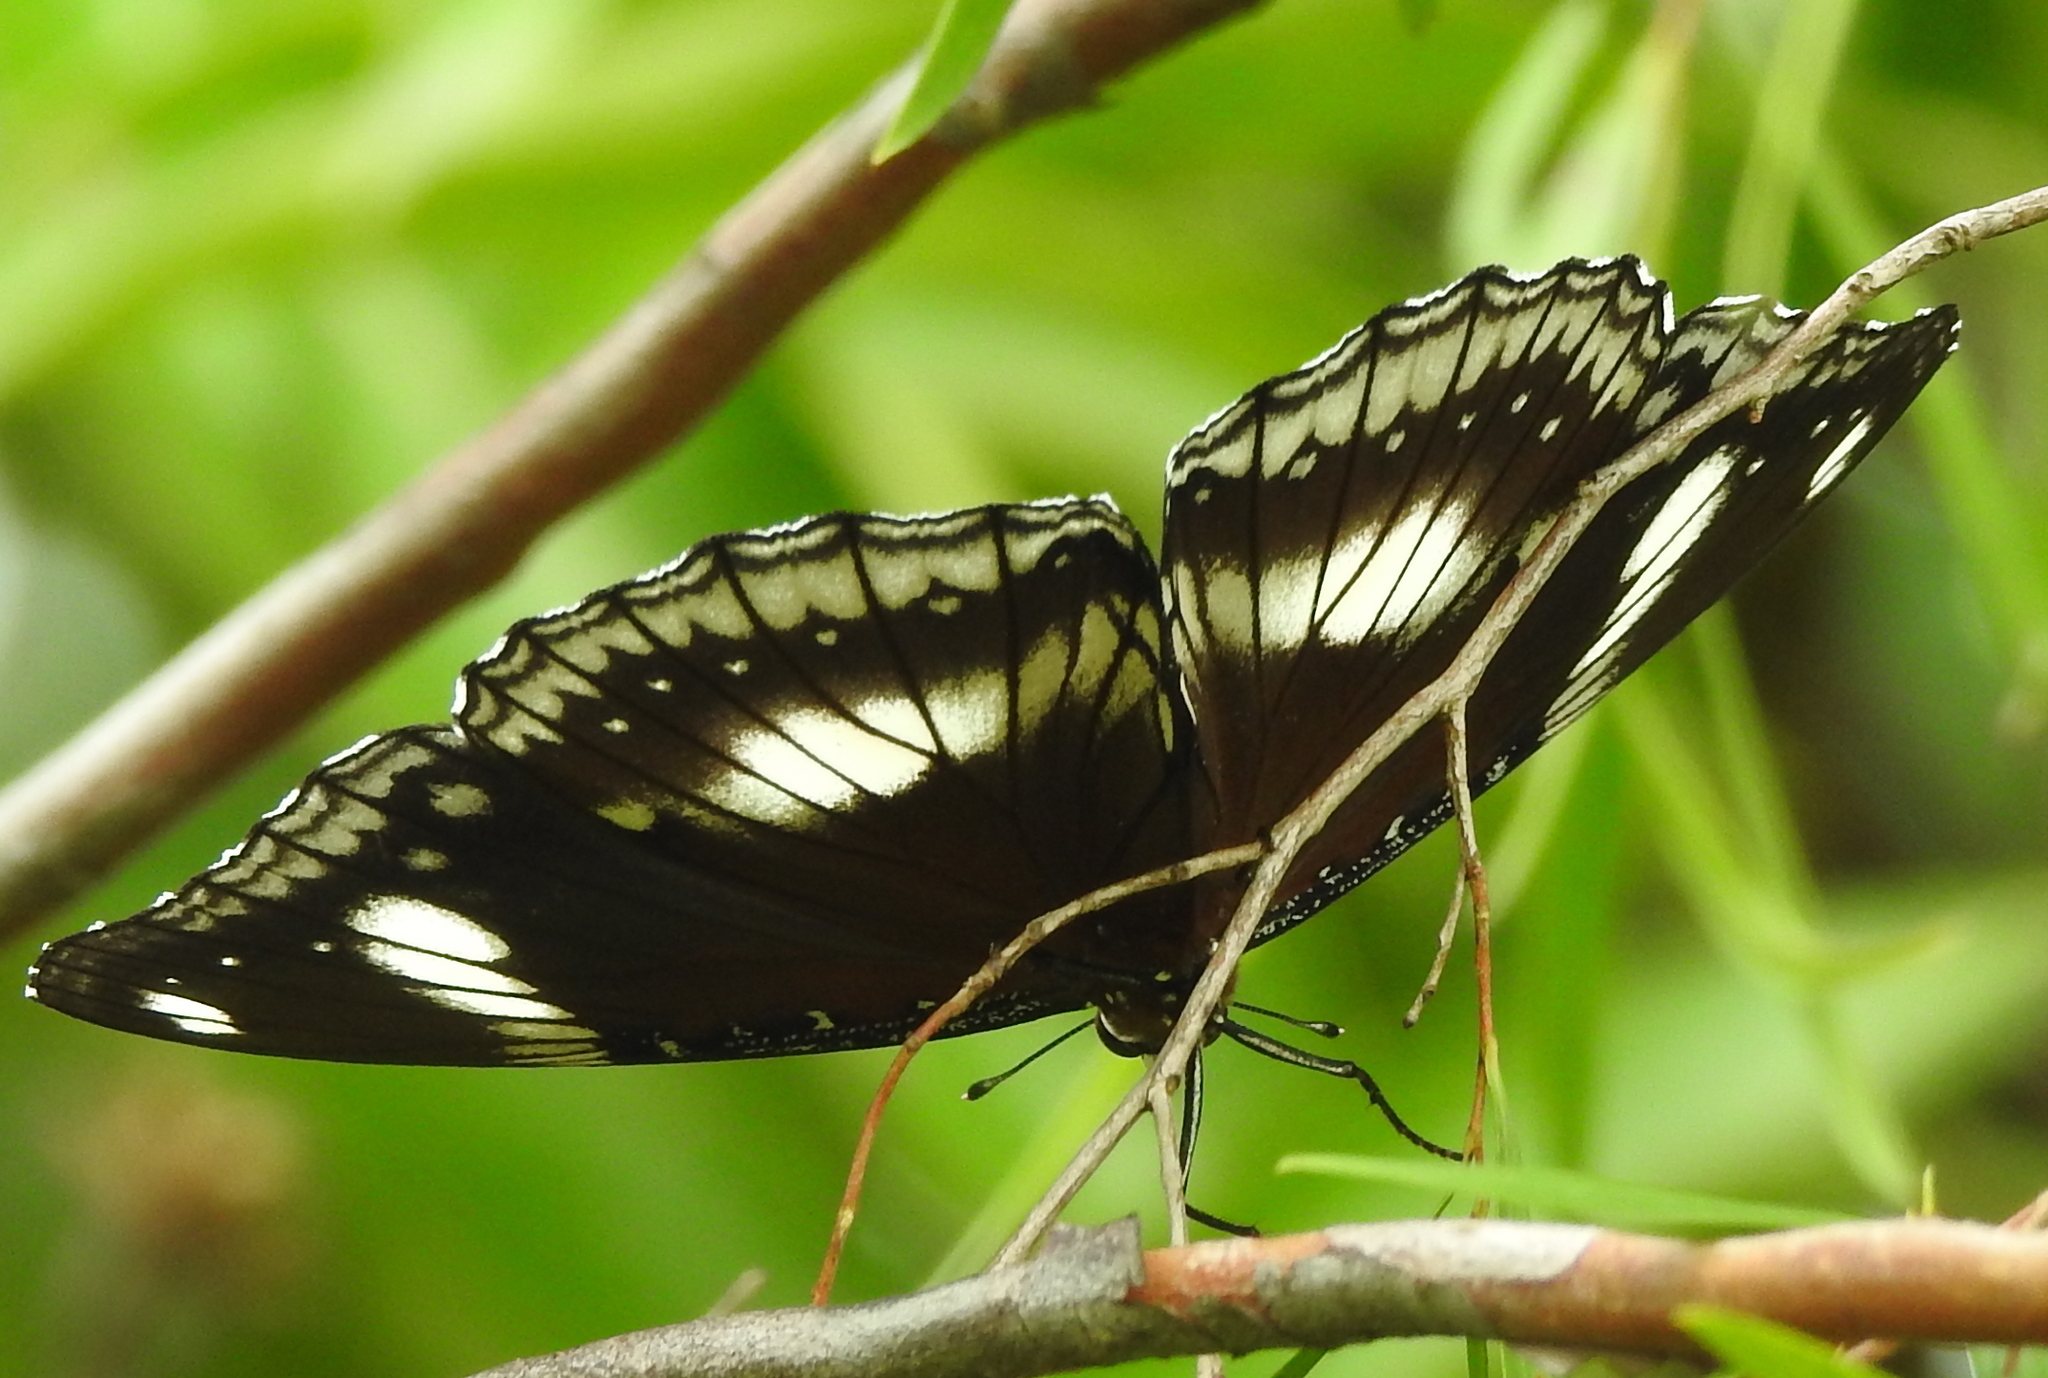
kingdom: Animalia
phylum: Arthropoda
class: Insecta
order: Lepidoptera
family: Nymphalidae
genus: Hypolimnas
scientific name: Hypolimnas bolina
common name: Great eggfly
